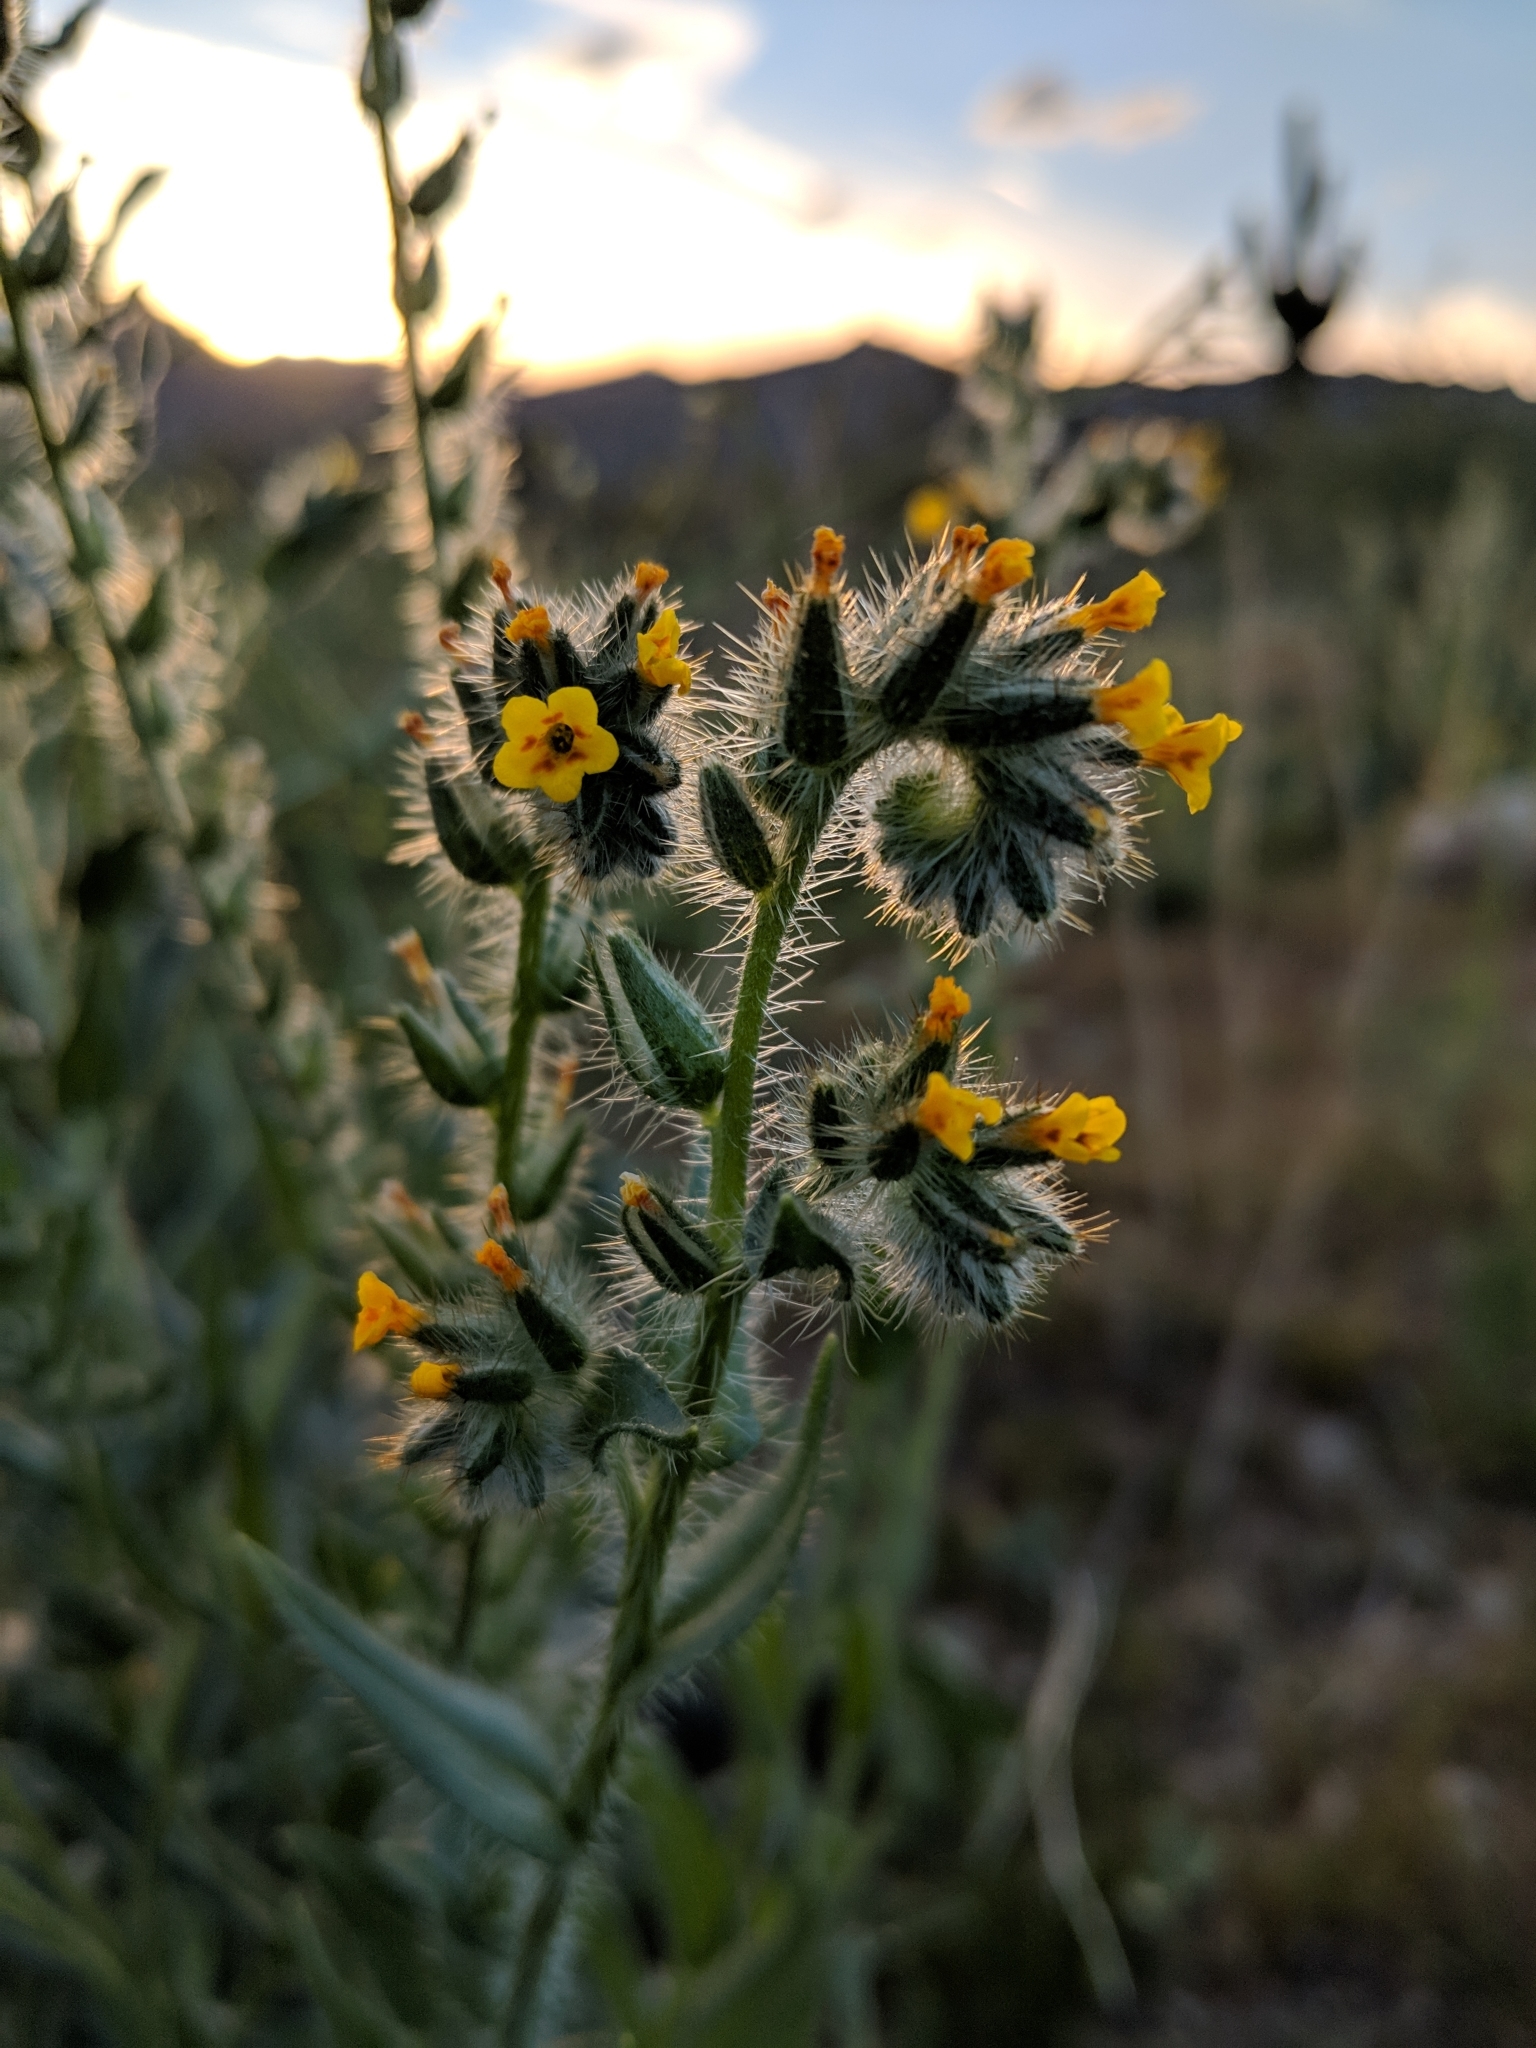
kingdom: Plantae
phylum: Tracheophyta
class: Magnoliopsida
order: Boraginales
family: Boraginaceae
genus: Amsinckia
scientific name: Amsinckia tessellata
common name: Tessellate fiddleneck
